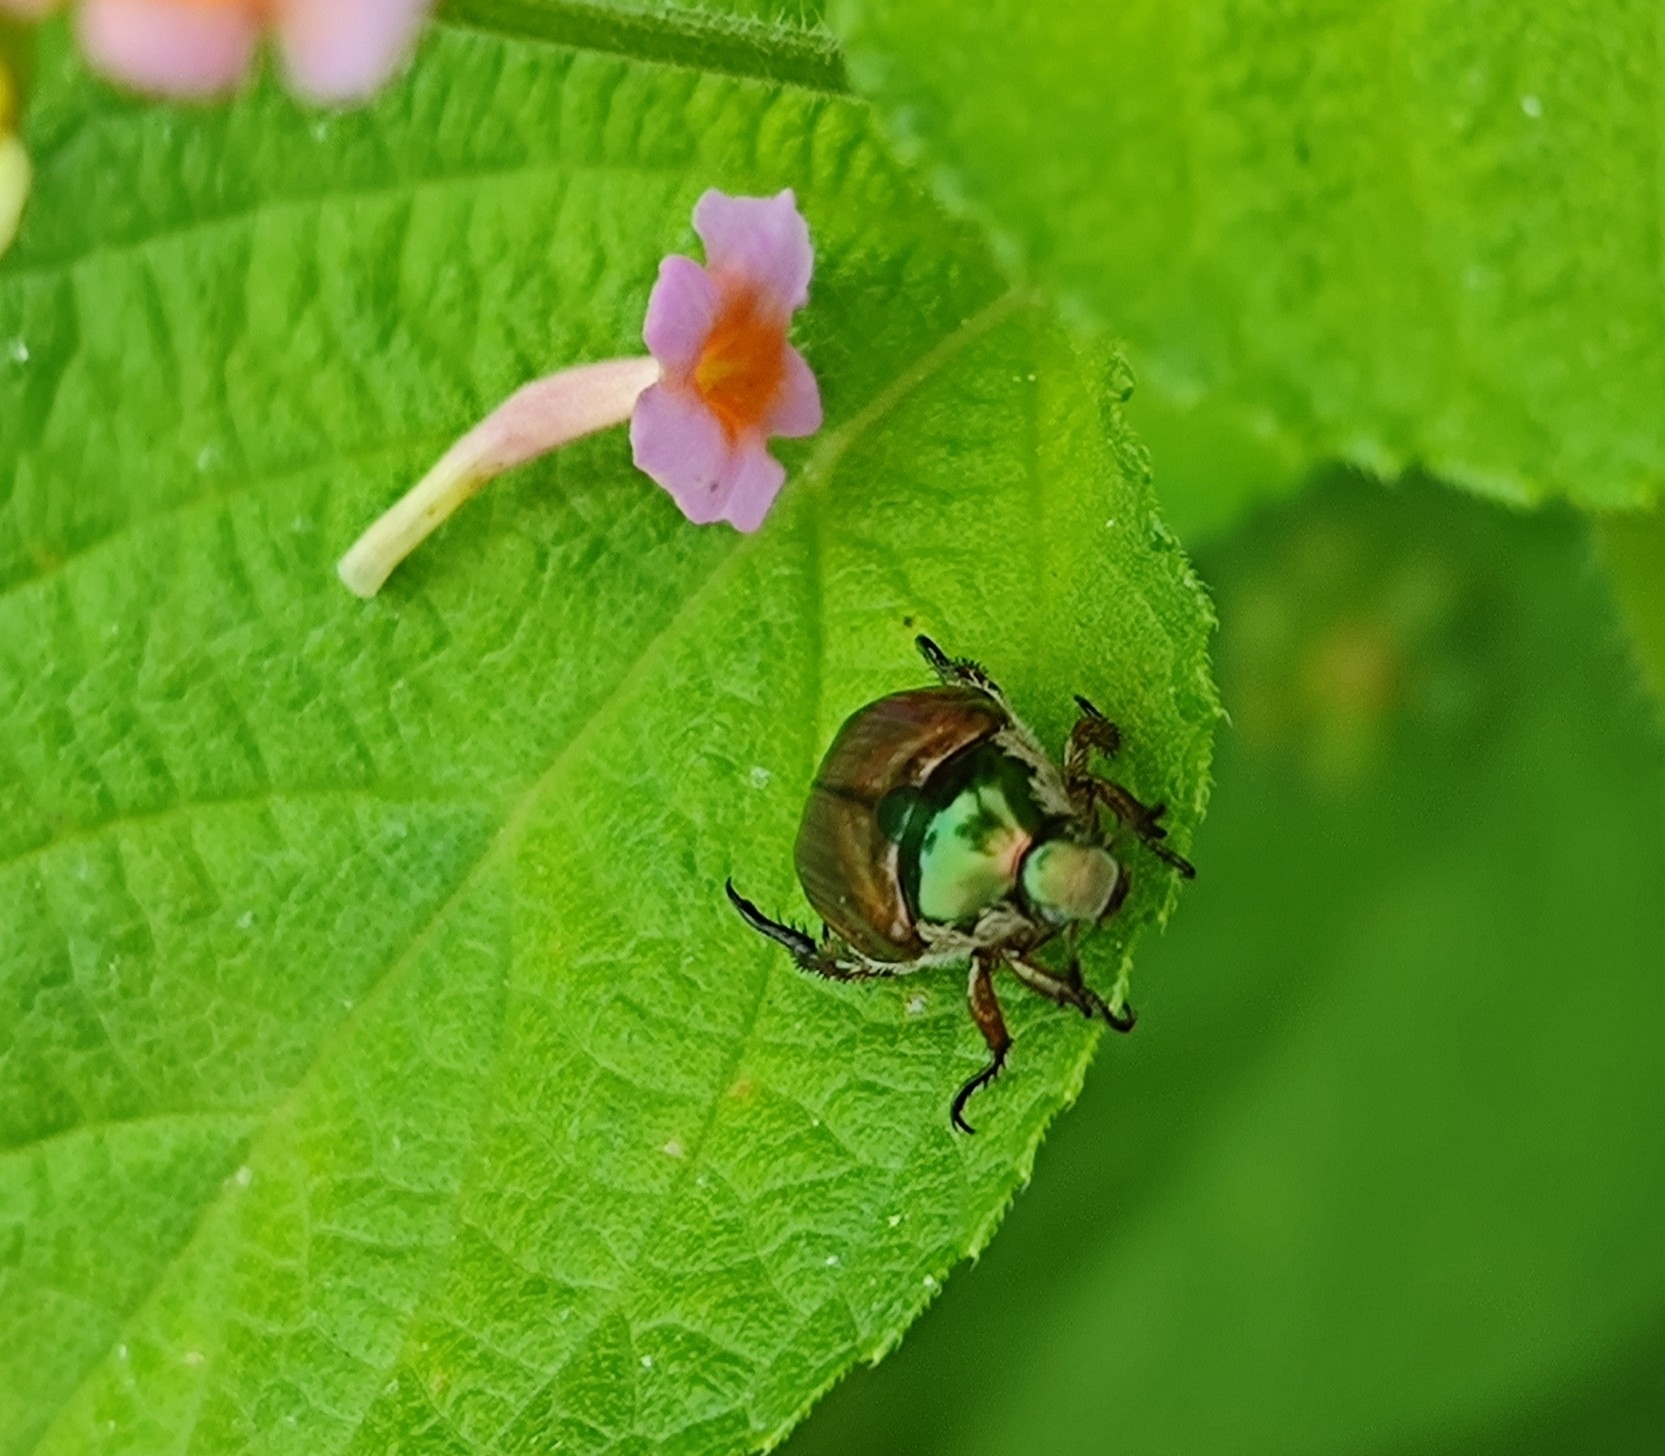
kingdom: Animalia
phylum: Arthropoda
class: Insecta
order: Coleoptera
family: Scarabaeidae
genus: Popillia
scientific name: Popillia complanata
